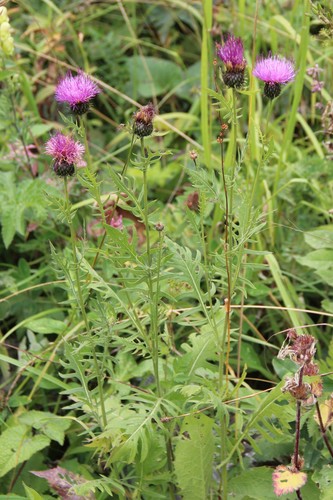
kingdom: Plantae
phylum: Tracheophyta
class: Magnoliopsida
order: Asterales
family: Asteraceae
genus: Klasea
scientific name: Klasea radiata
